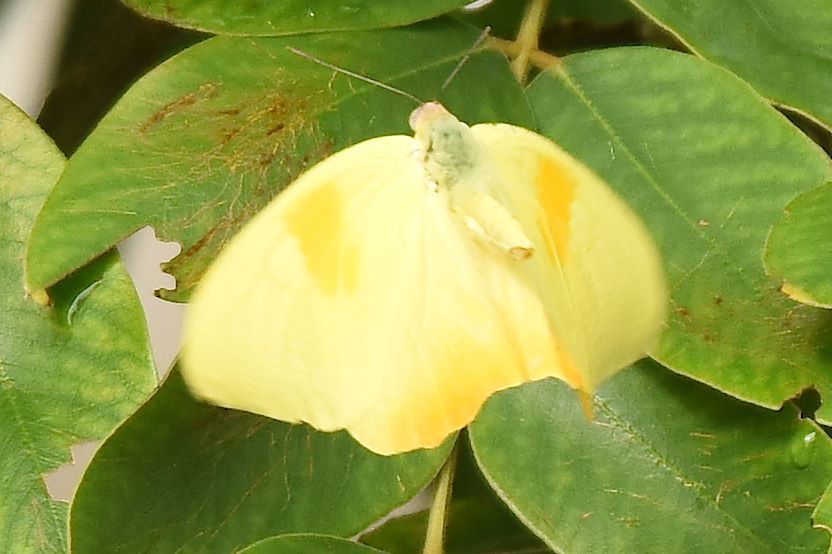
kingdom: Animalia
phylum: Arthropoda
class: Insecta
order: Lepidoptera
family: Pieridae
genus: Phoebis
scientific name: Phoebis philea
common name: Orange-barred giant sulphur
